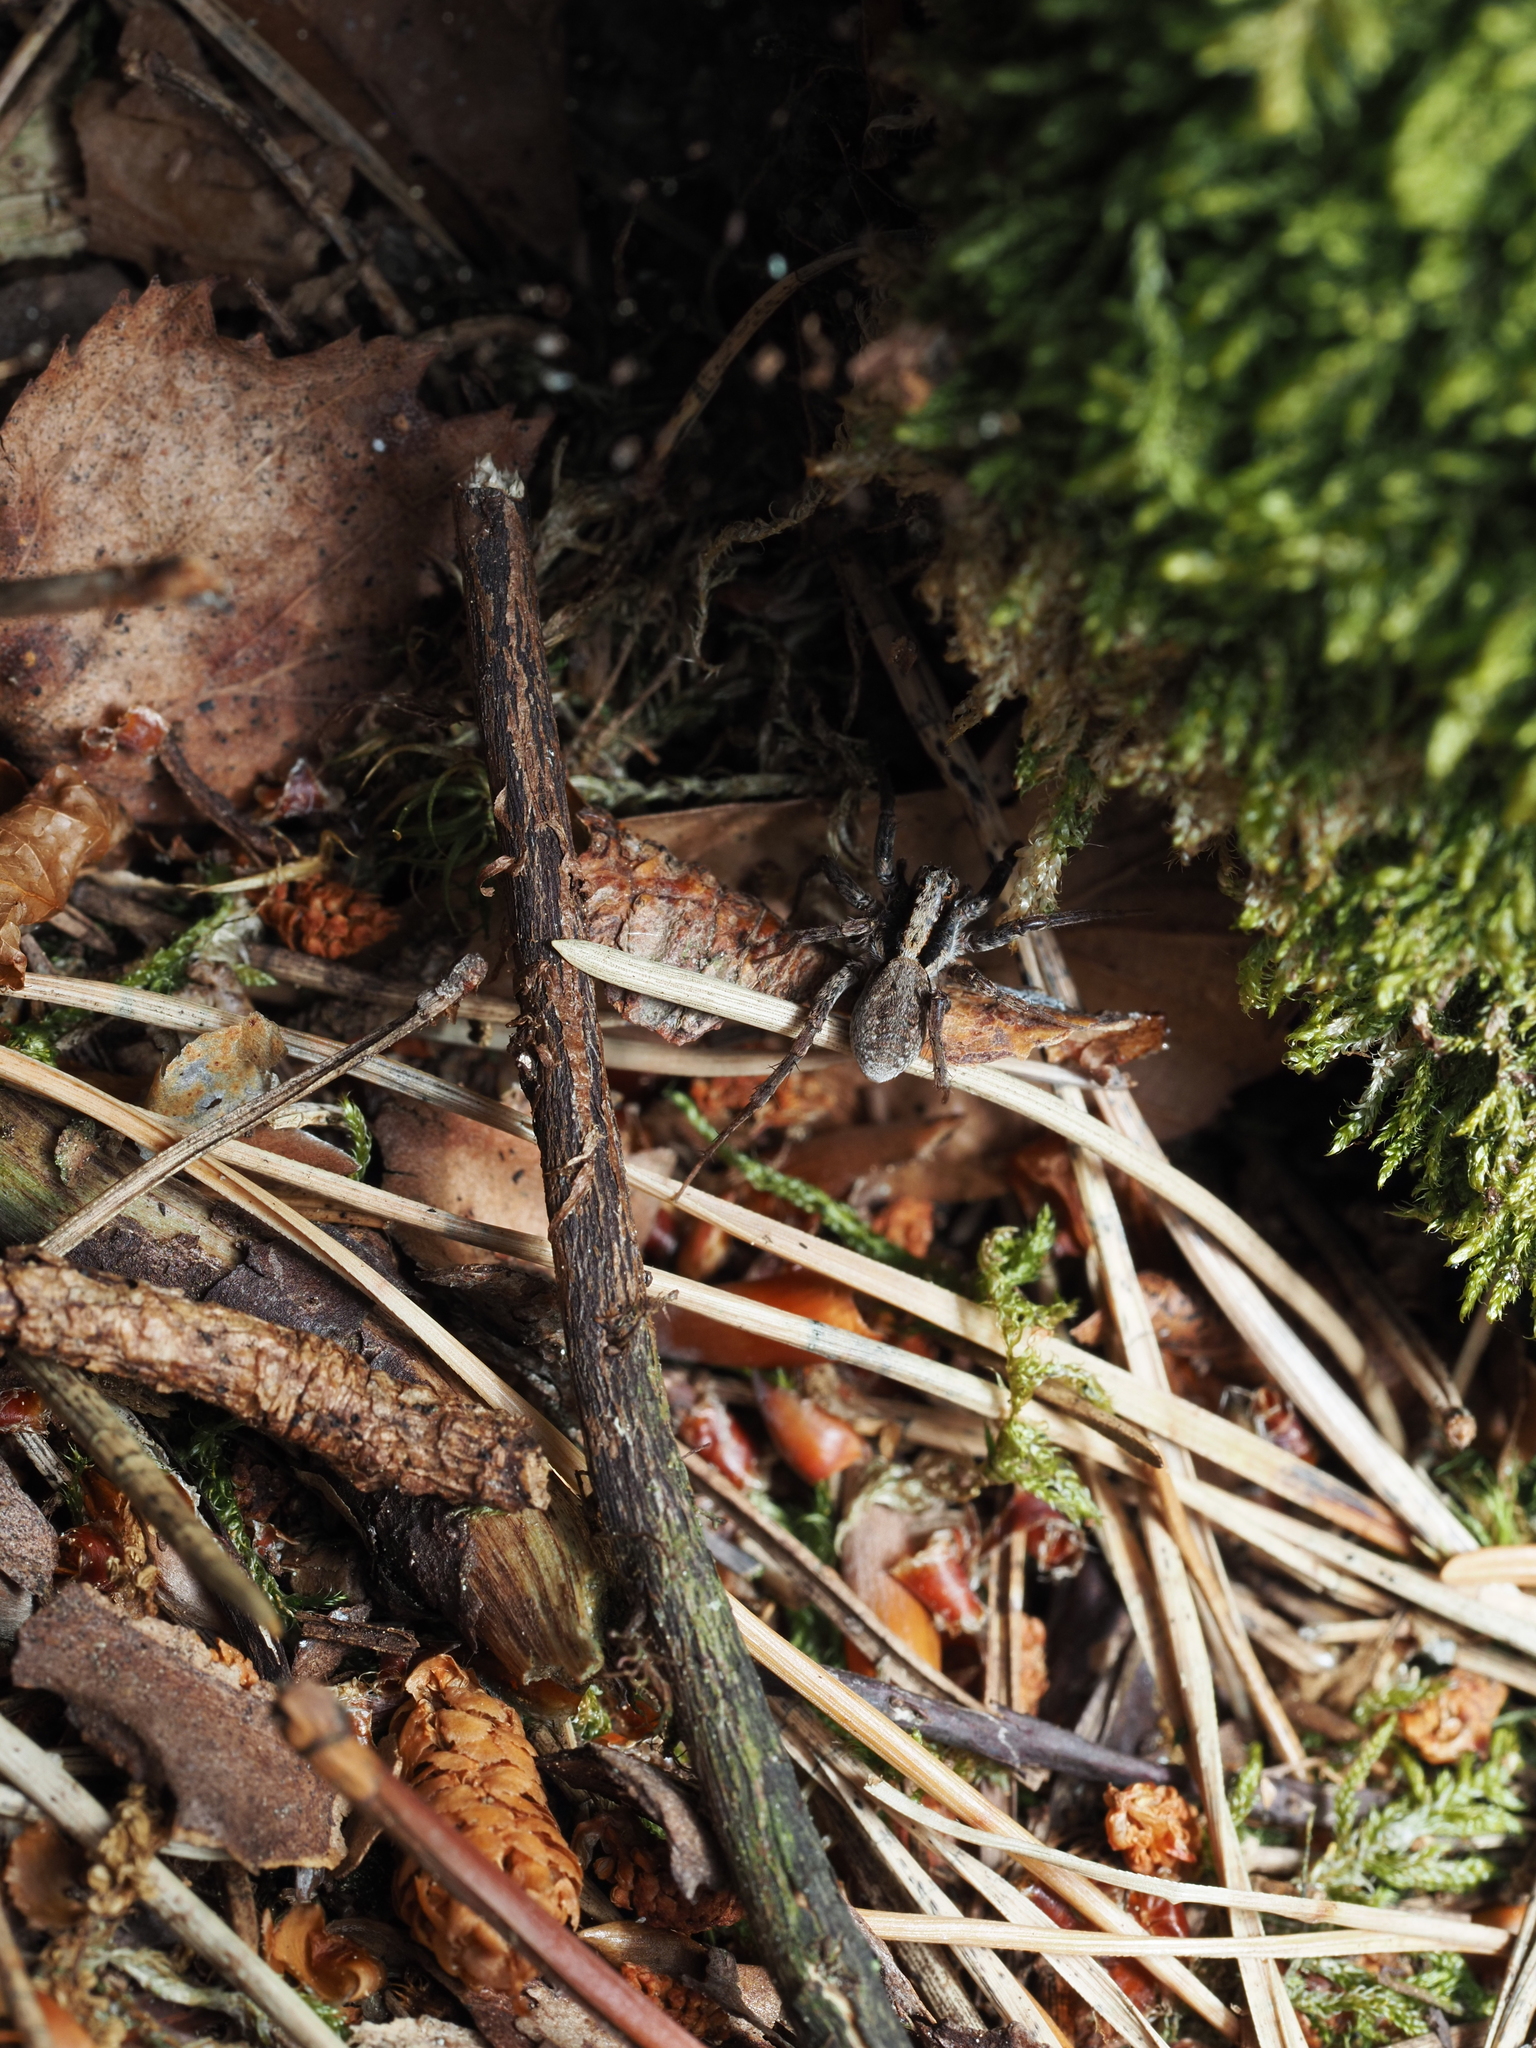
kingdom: Animalia
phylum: Arthropoda
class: Arachnida
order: Araneae
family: Lycosidae
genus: Xerolycosa
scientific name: Xerolycosa nemoralis
